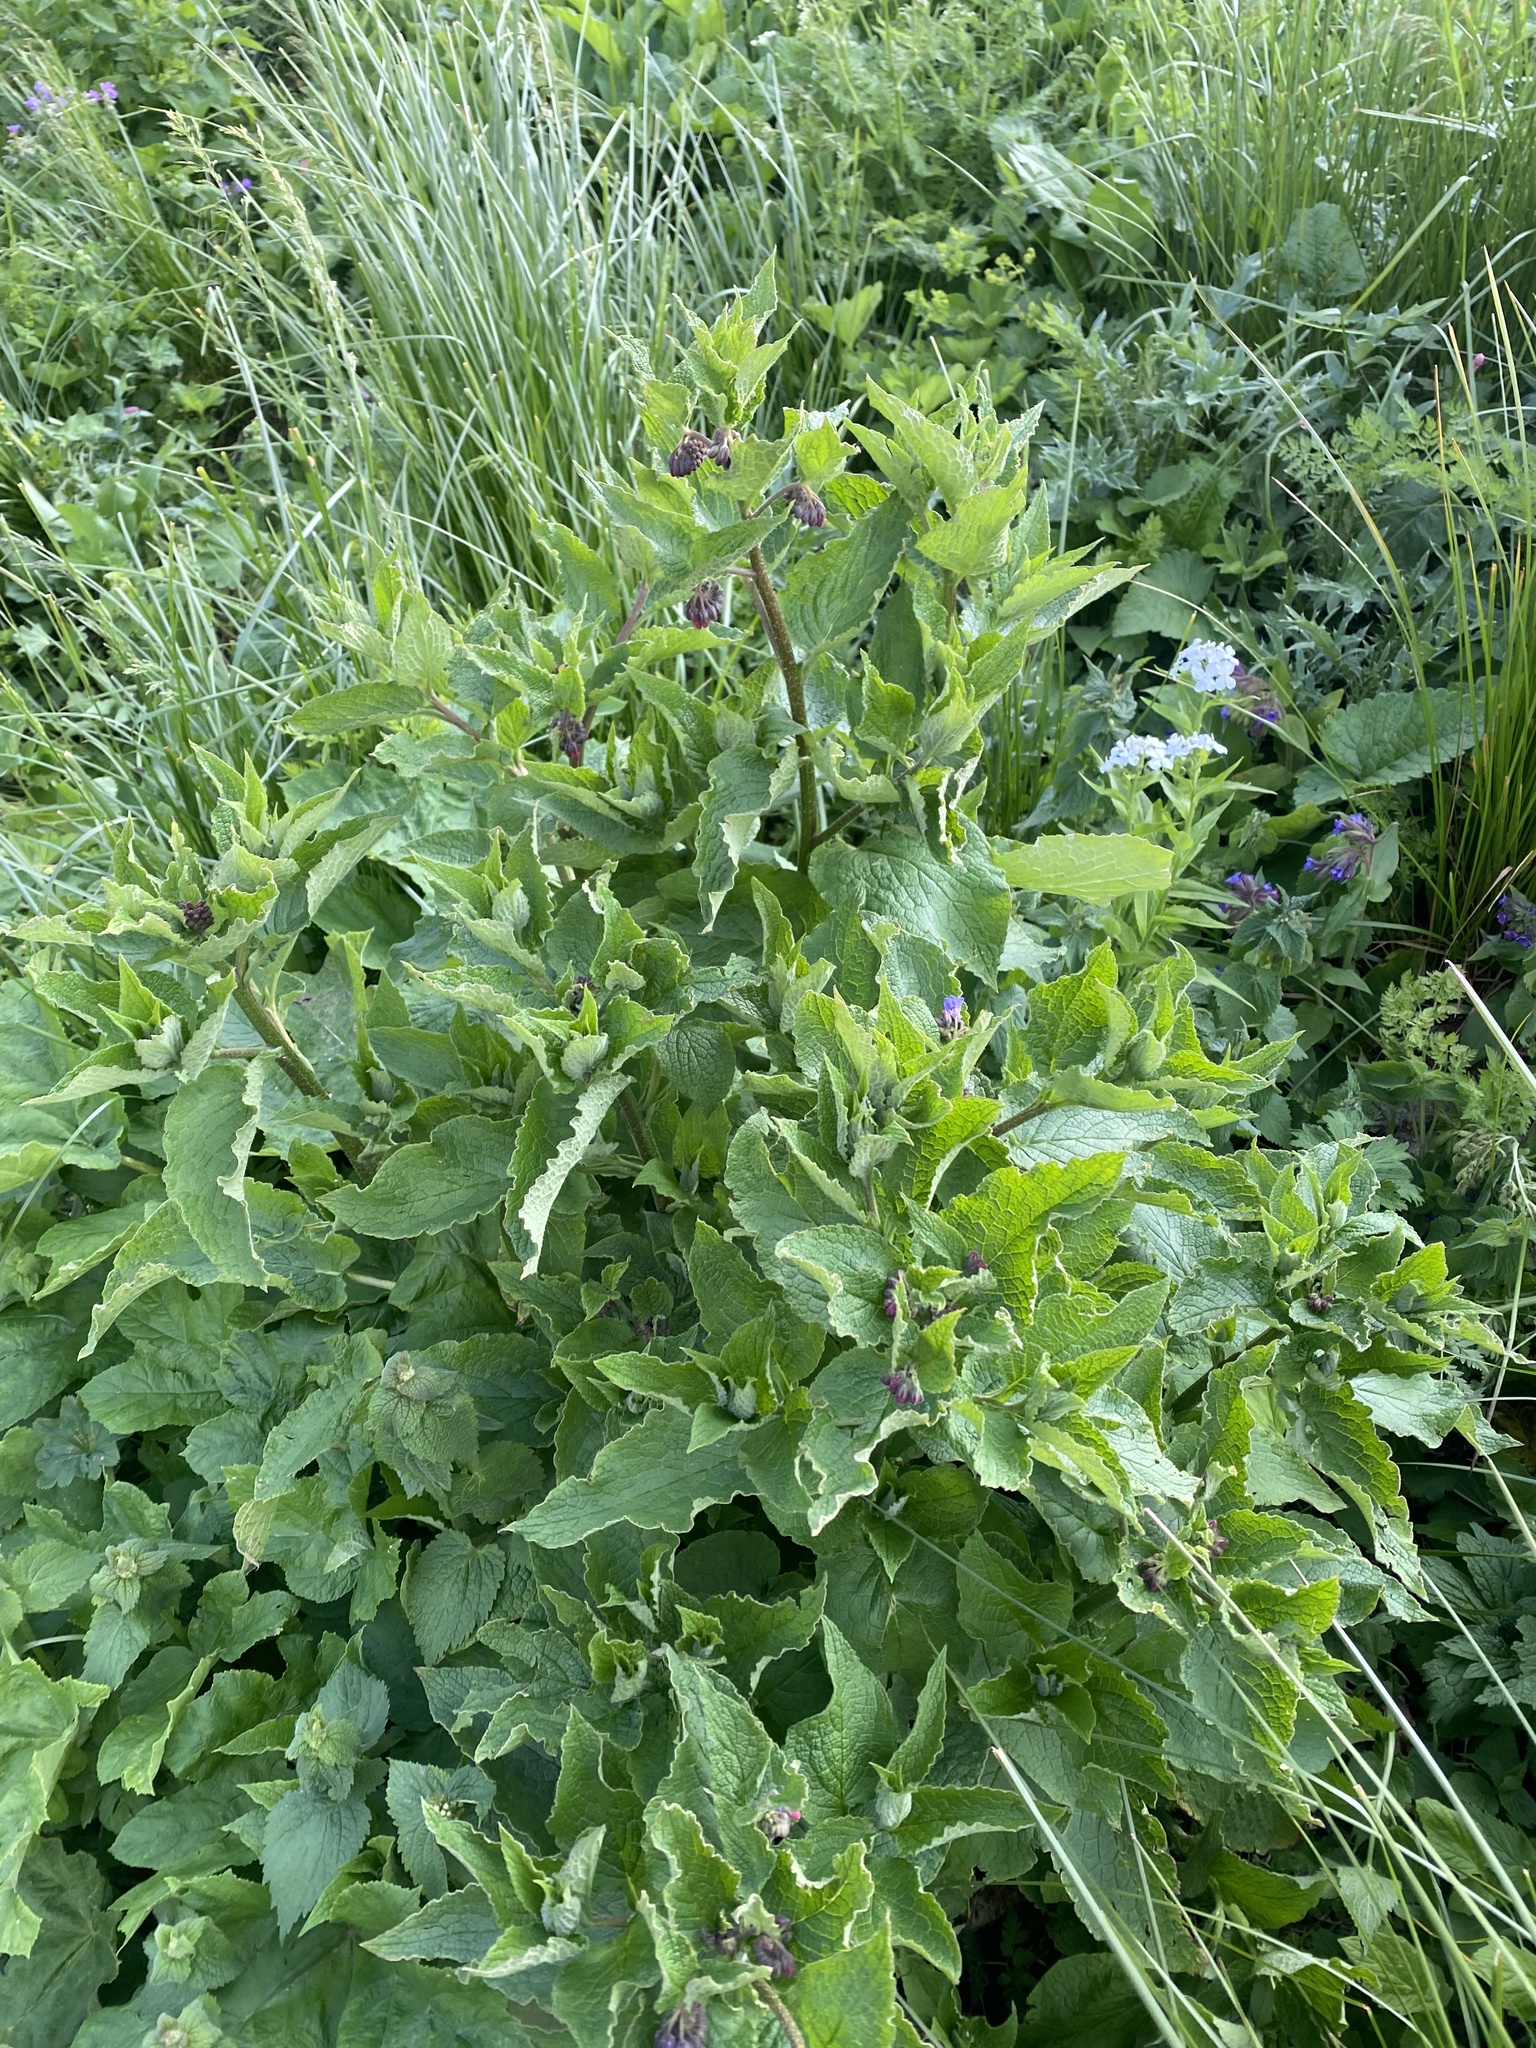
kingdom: Plantae
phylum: Tracheophyta
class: Magnoliopsida
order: Boraginales
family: Boraginaceae
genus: Symphytum
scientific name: Symphytum asperum
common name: Prickly comfrey
